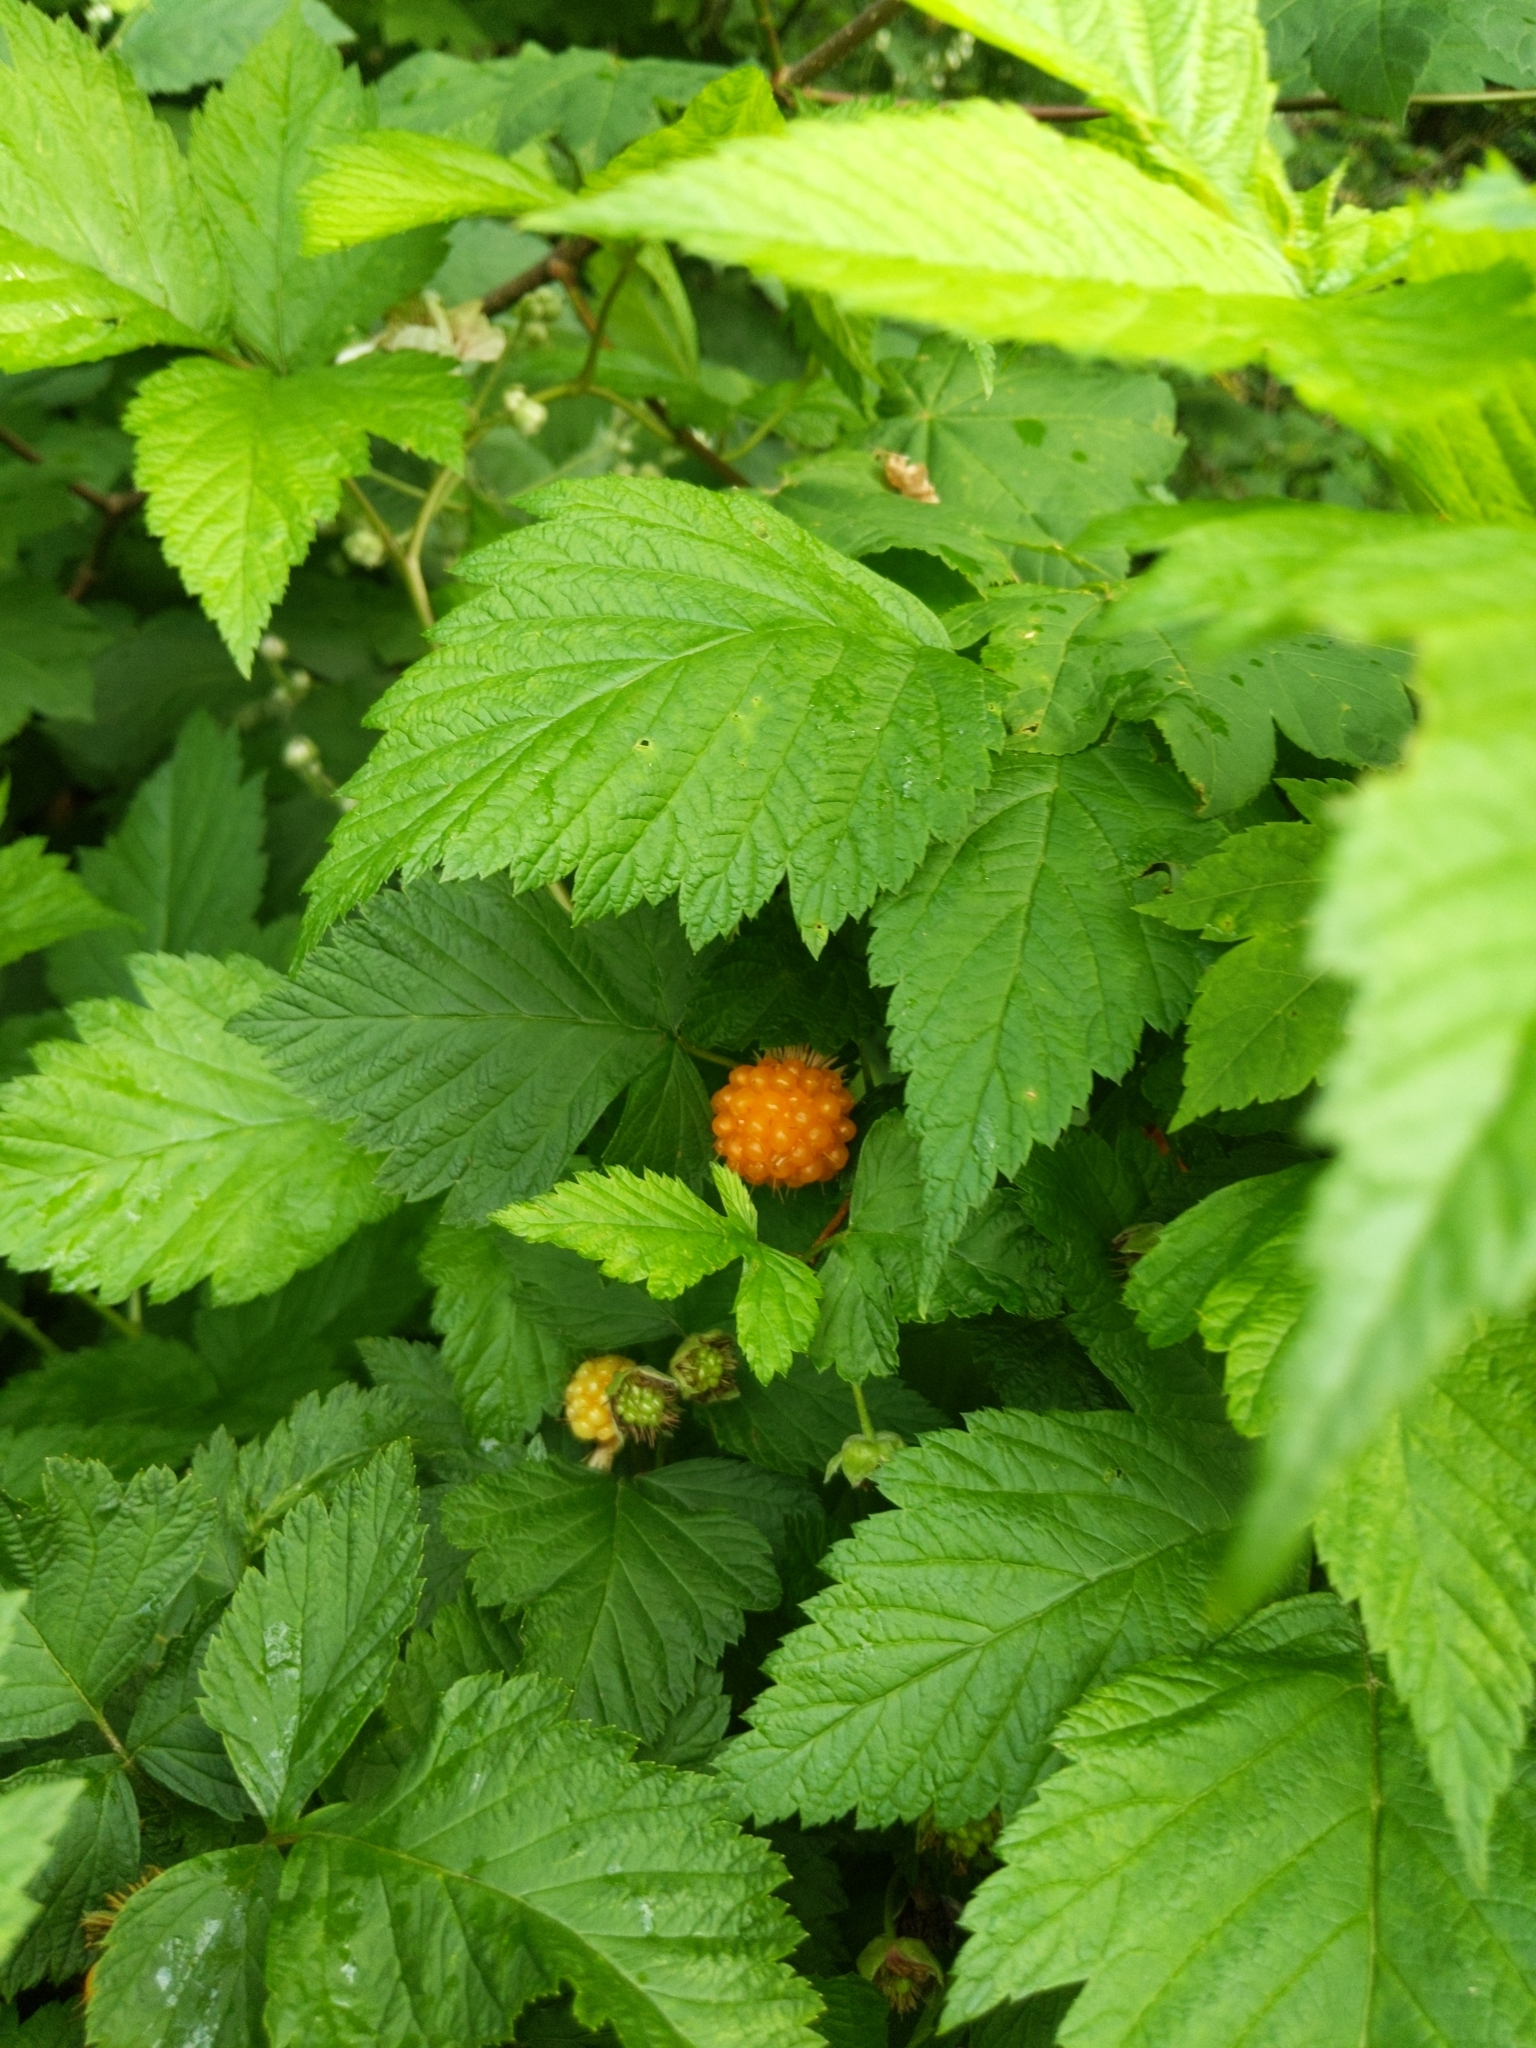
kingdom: Plantae
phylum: Tracheophyta
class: Magnoliopsida
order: Rosales
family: Rosaceae
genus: Rubus
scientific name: Rubus spectabilis
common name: Salmonberry
